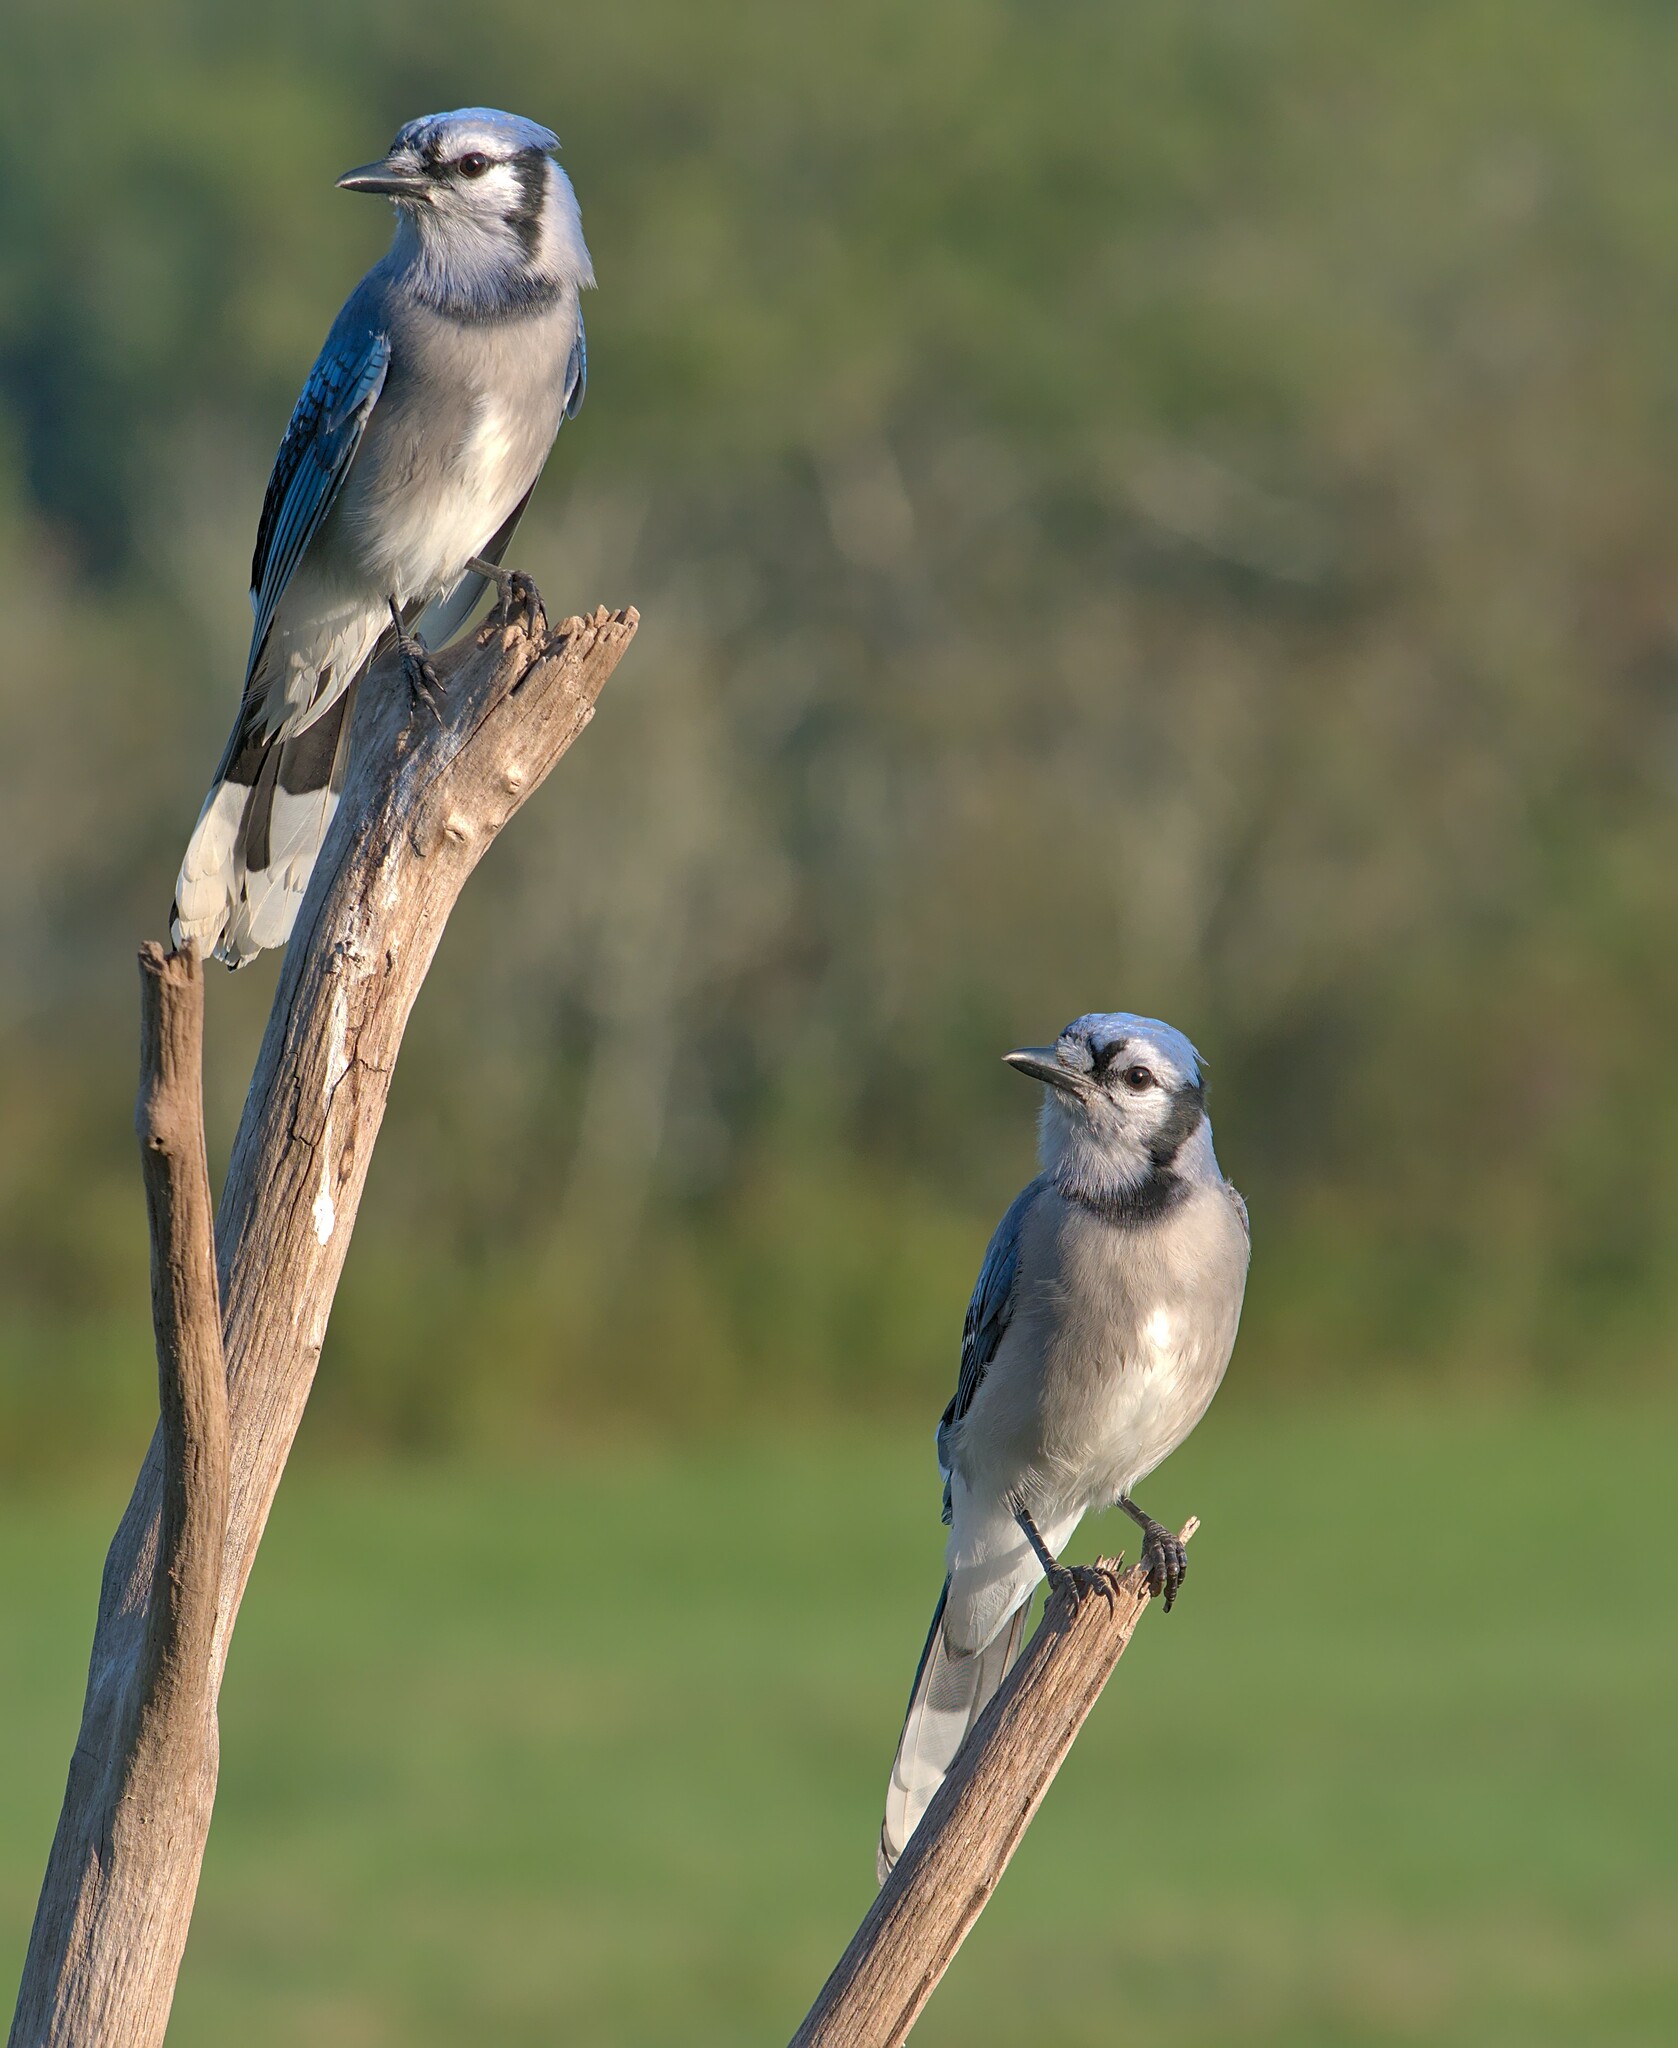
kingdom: Animalia
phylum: Chordata
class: Aves
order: Passeriformes
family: Corvidae
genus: Cyanocitta
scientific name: Cyanocitta cristata
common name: Blue jay
